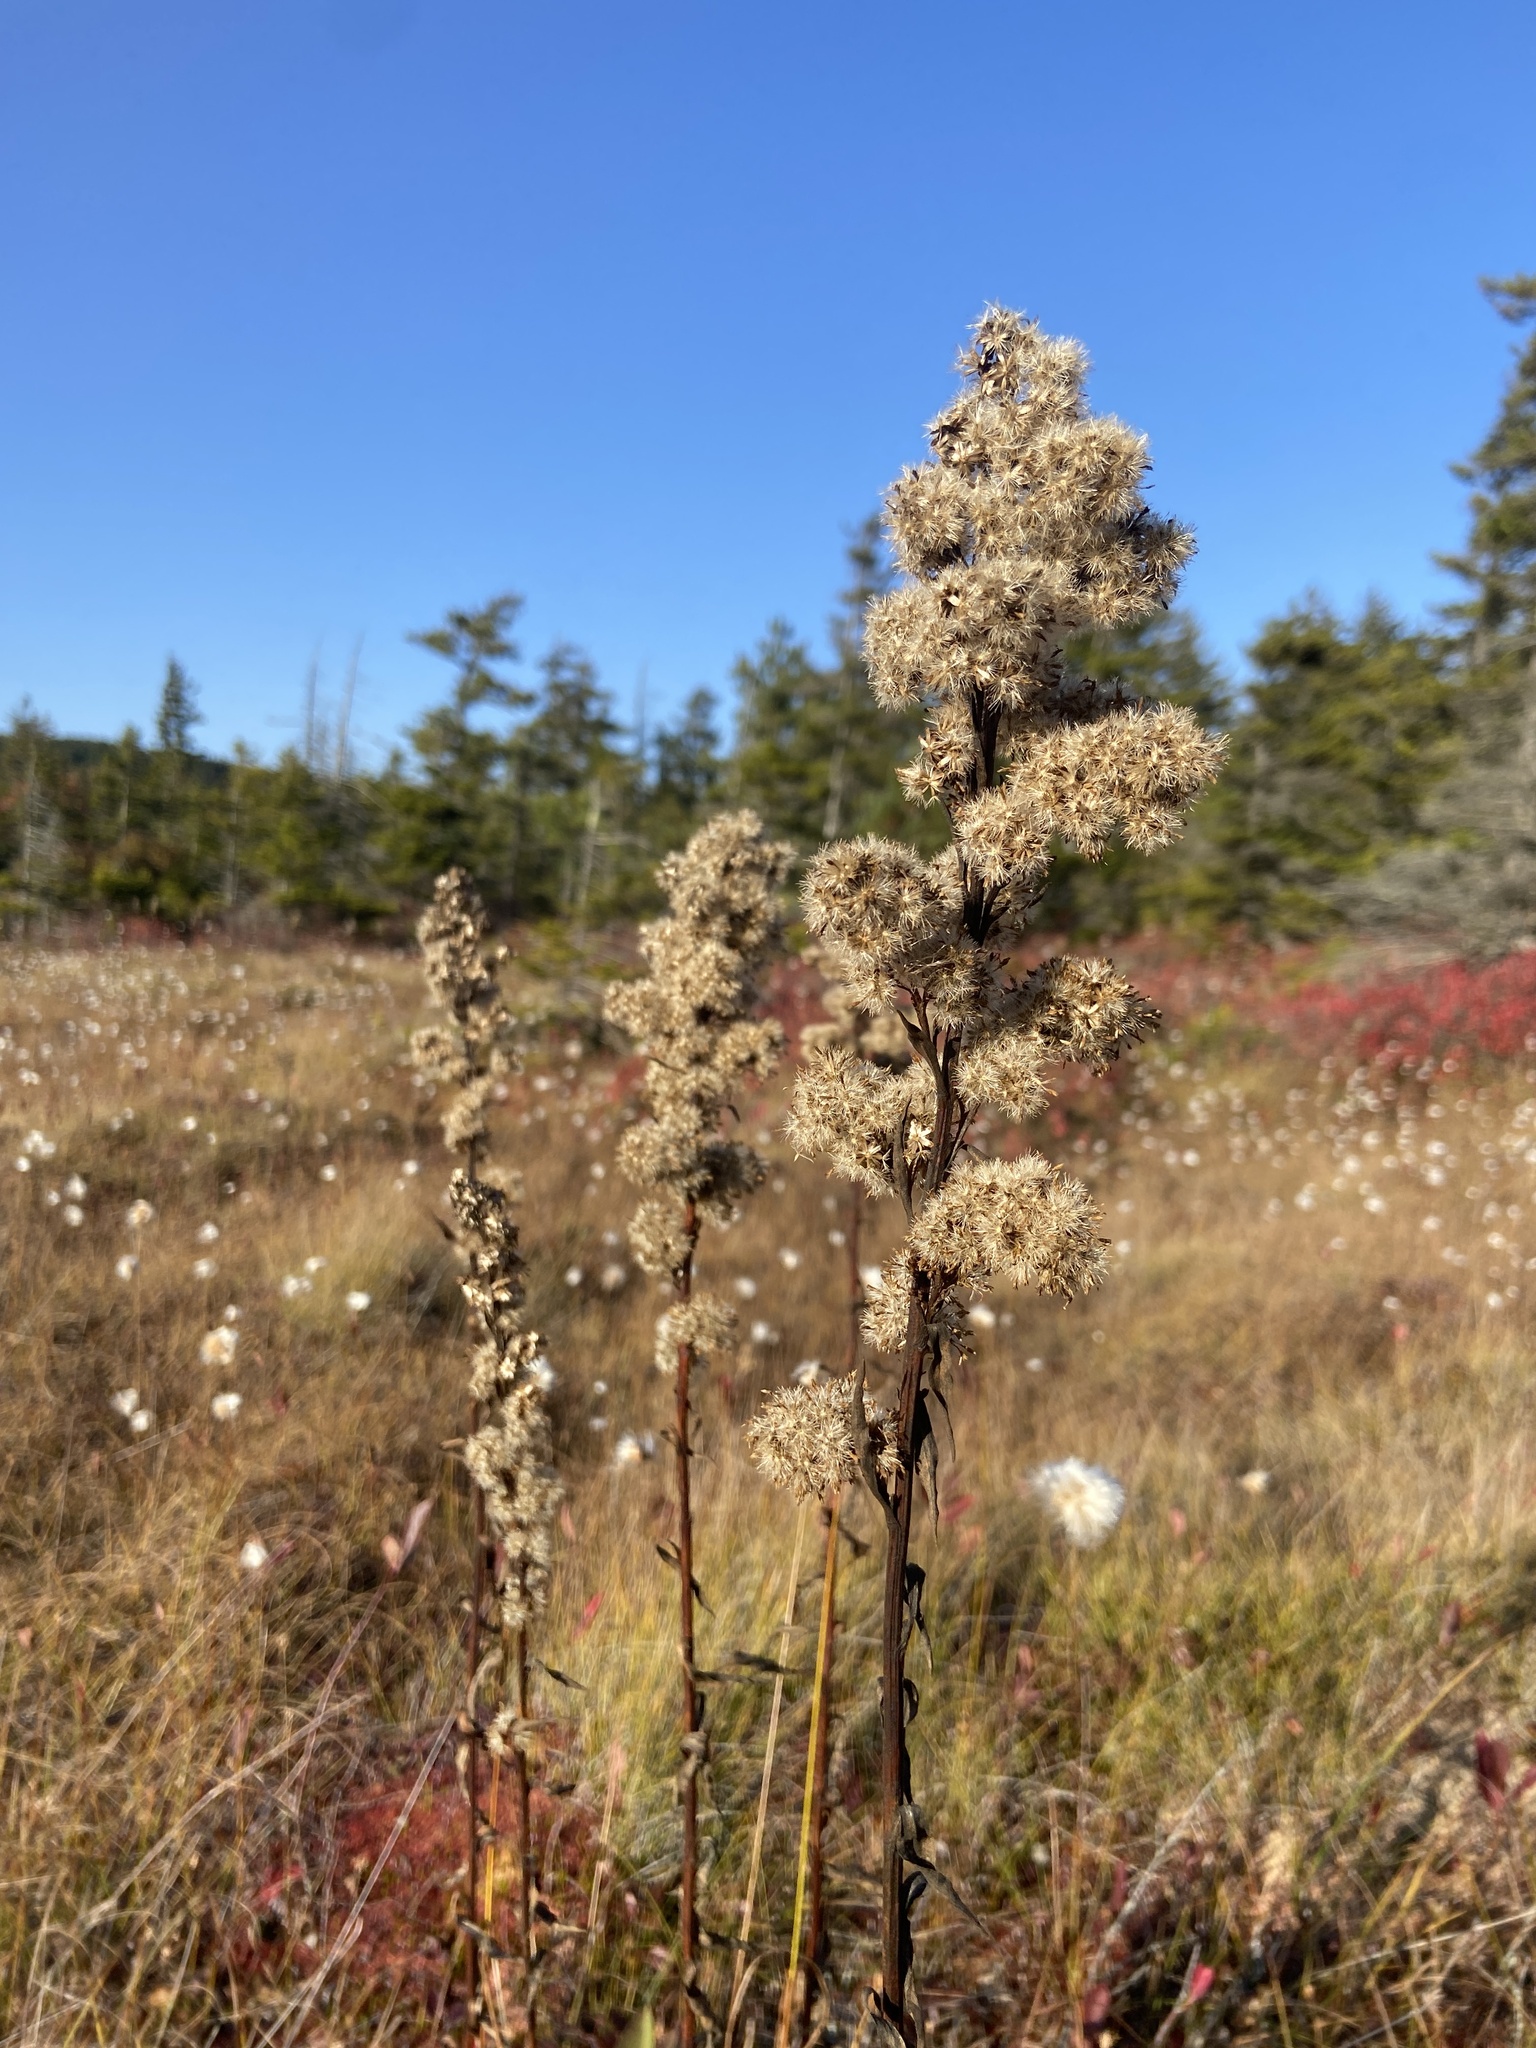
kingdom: Plantae
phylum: Tracheophyta
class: Magnoliopsida
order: Asterales
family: Asteraceae
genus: Solidago
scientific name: Solidago uliginosa
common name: Bog goldenrod
